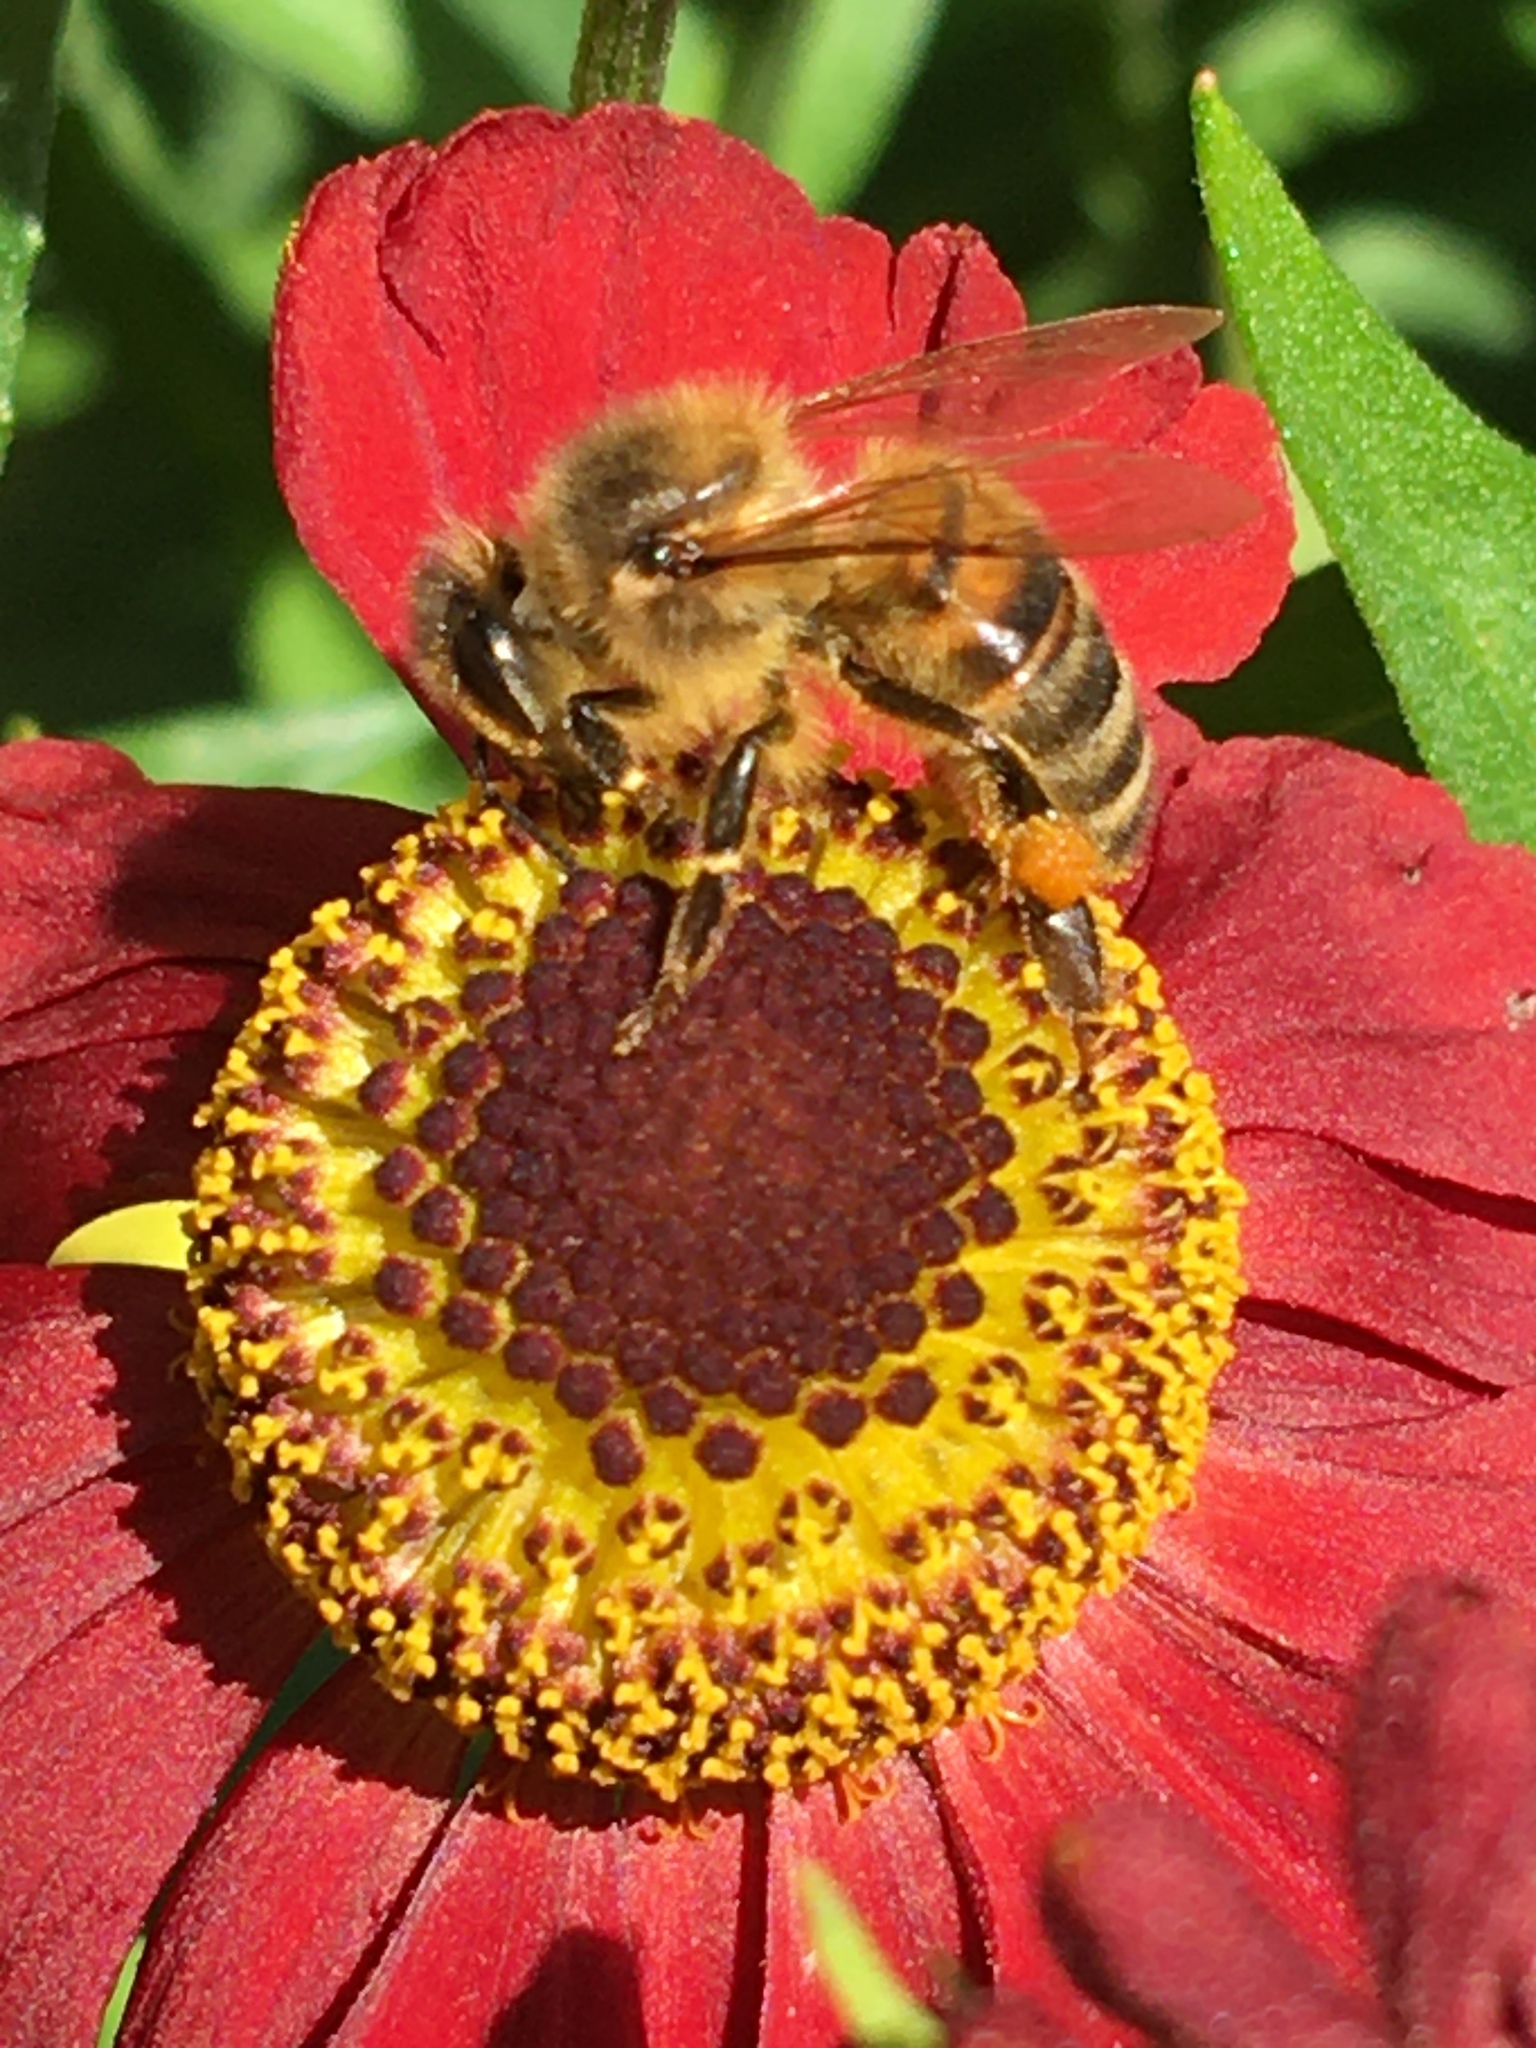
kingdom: Animalia
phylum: Arthropoda
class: Insecta
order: Hymenoptera
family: Apidae
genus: Apis
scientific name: Apis mellifera
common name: Honey bee
